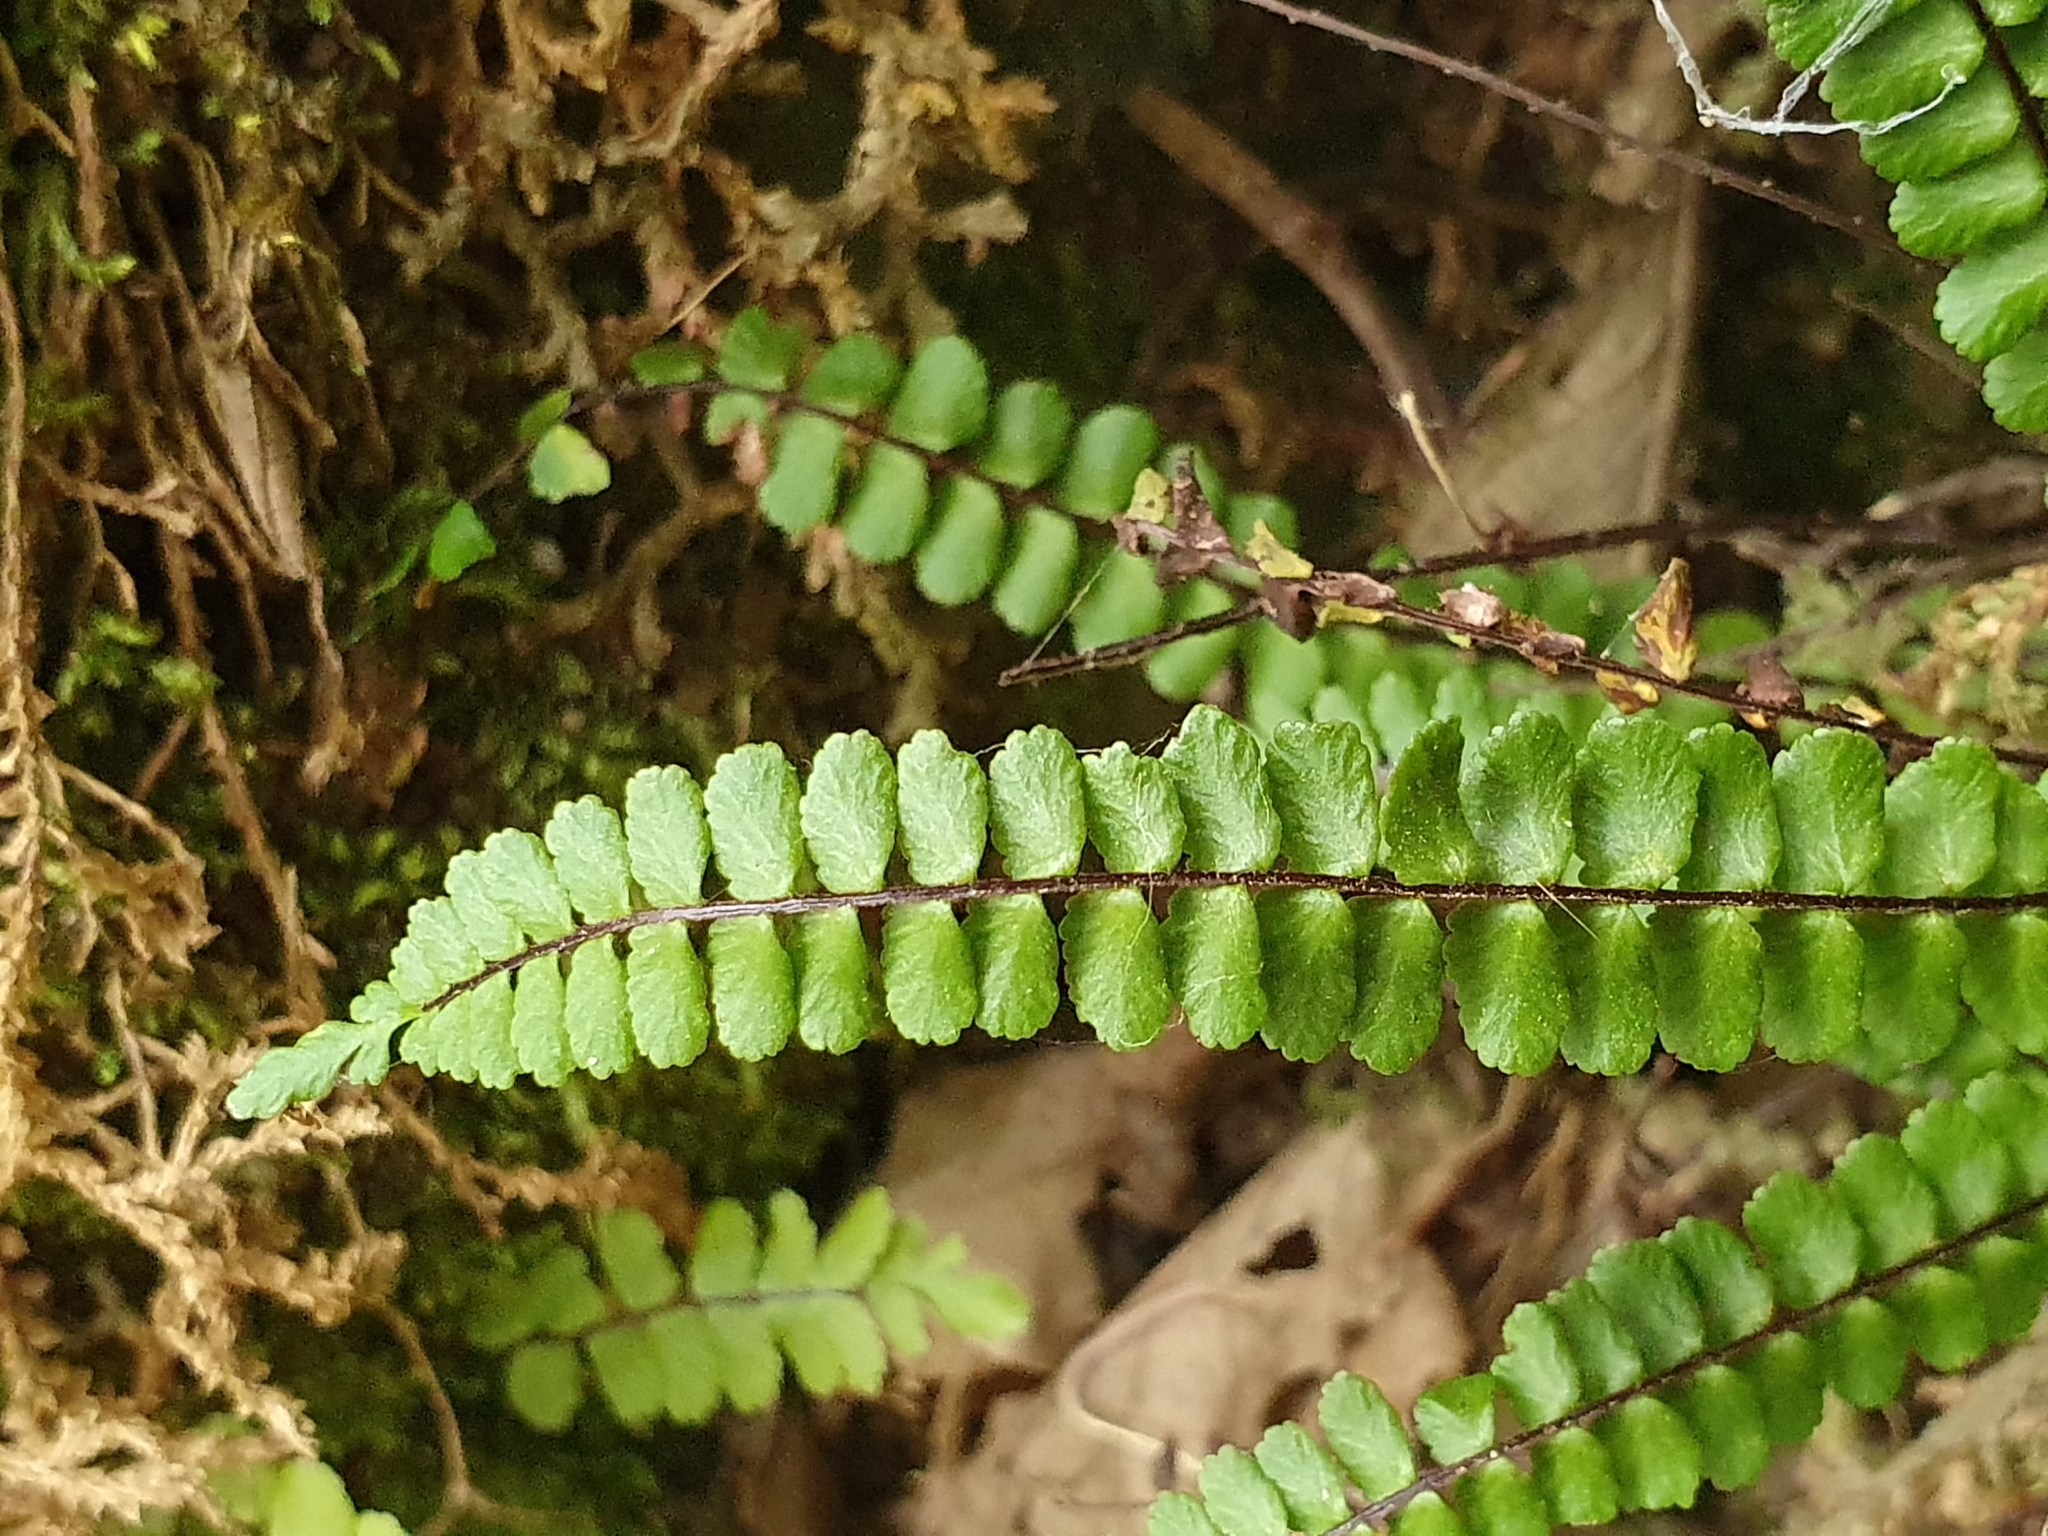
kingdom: Plantae
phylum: Tracheophyta
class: Polypodiopsida
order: Polypodiales
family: Aspleniaceae
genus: Asplenium
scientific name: Asplenium quadrivalens
